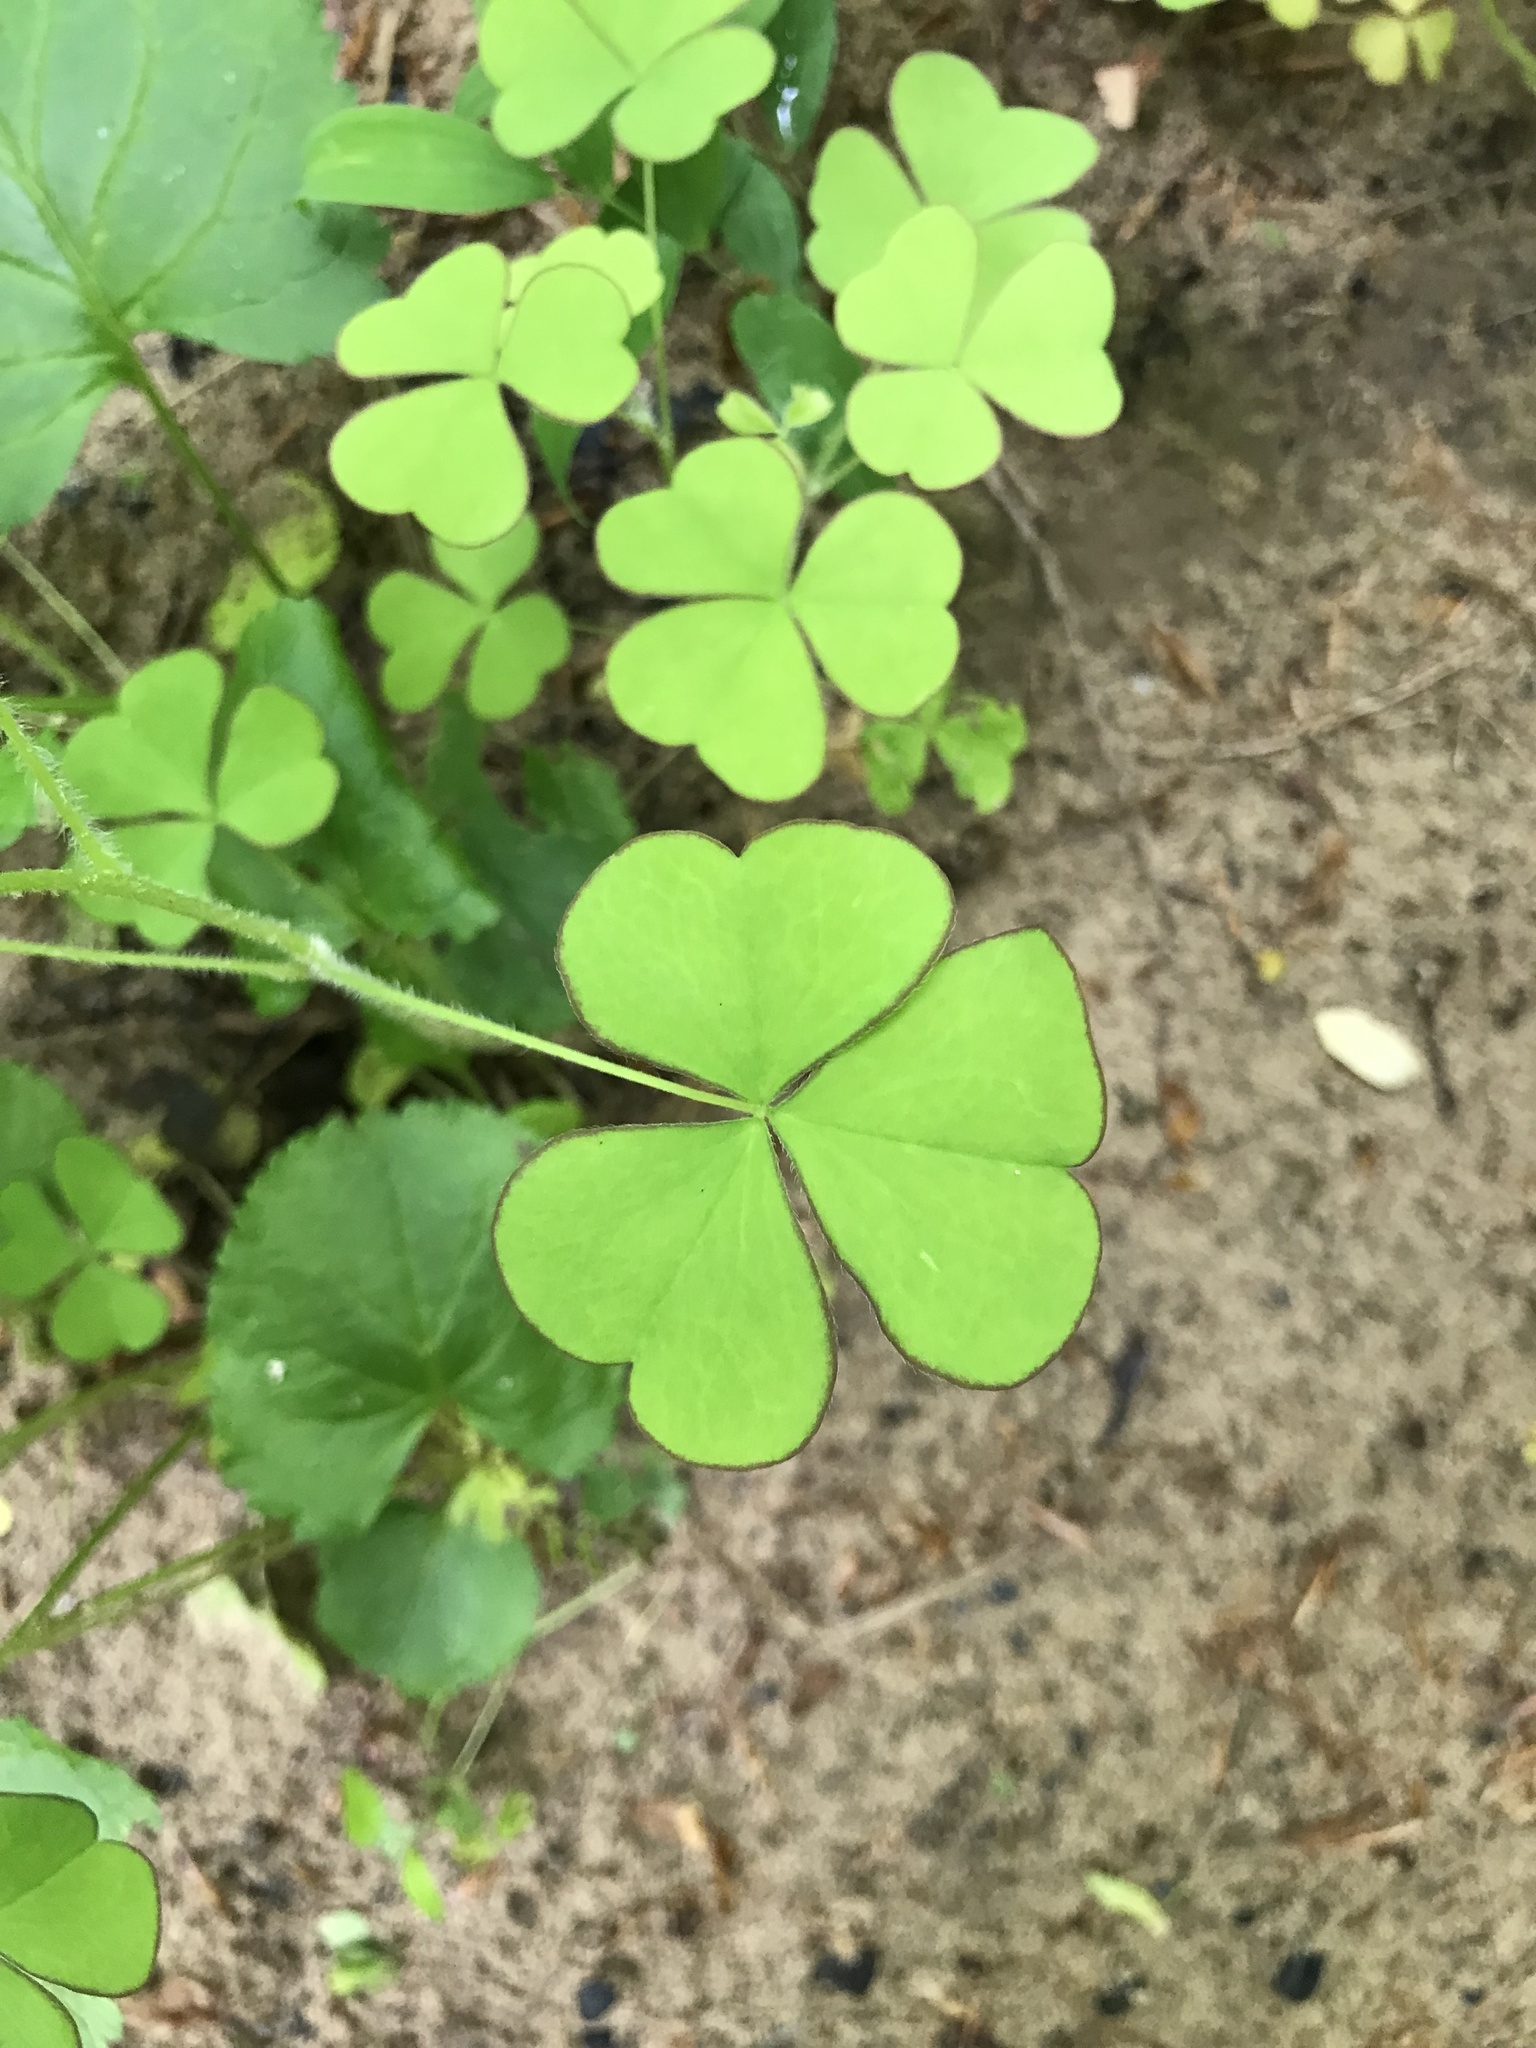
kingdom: Plantae
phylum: Tracheophyta
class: Magnoliopsida
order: Oxalidales
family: Oxalidaceae
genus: Oxalis
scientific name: Oxalis grandis
